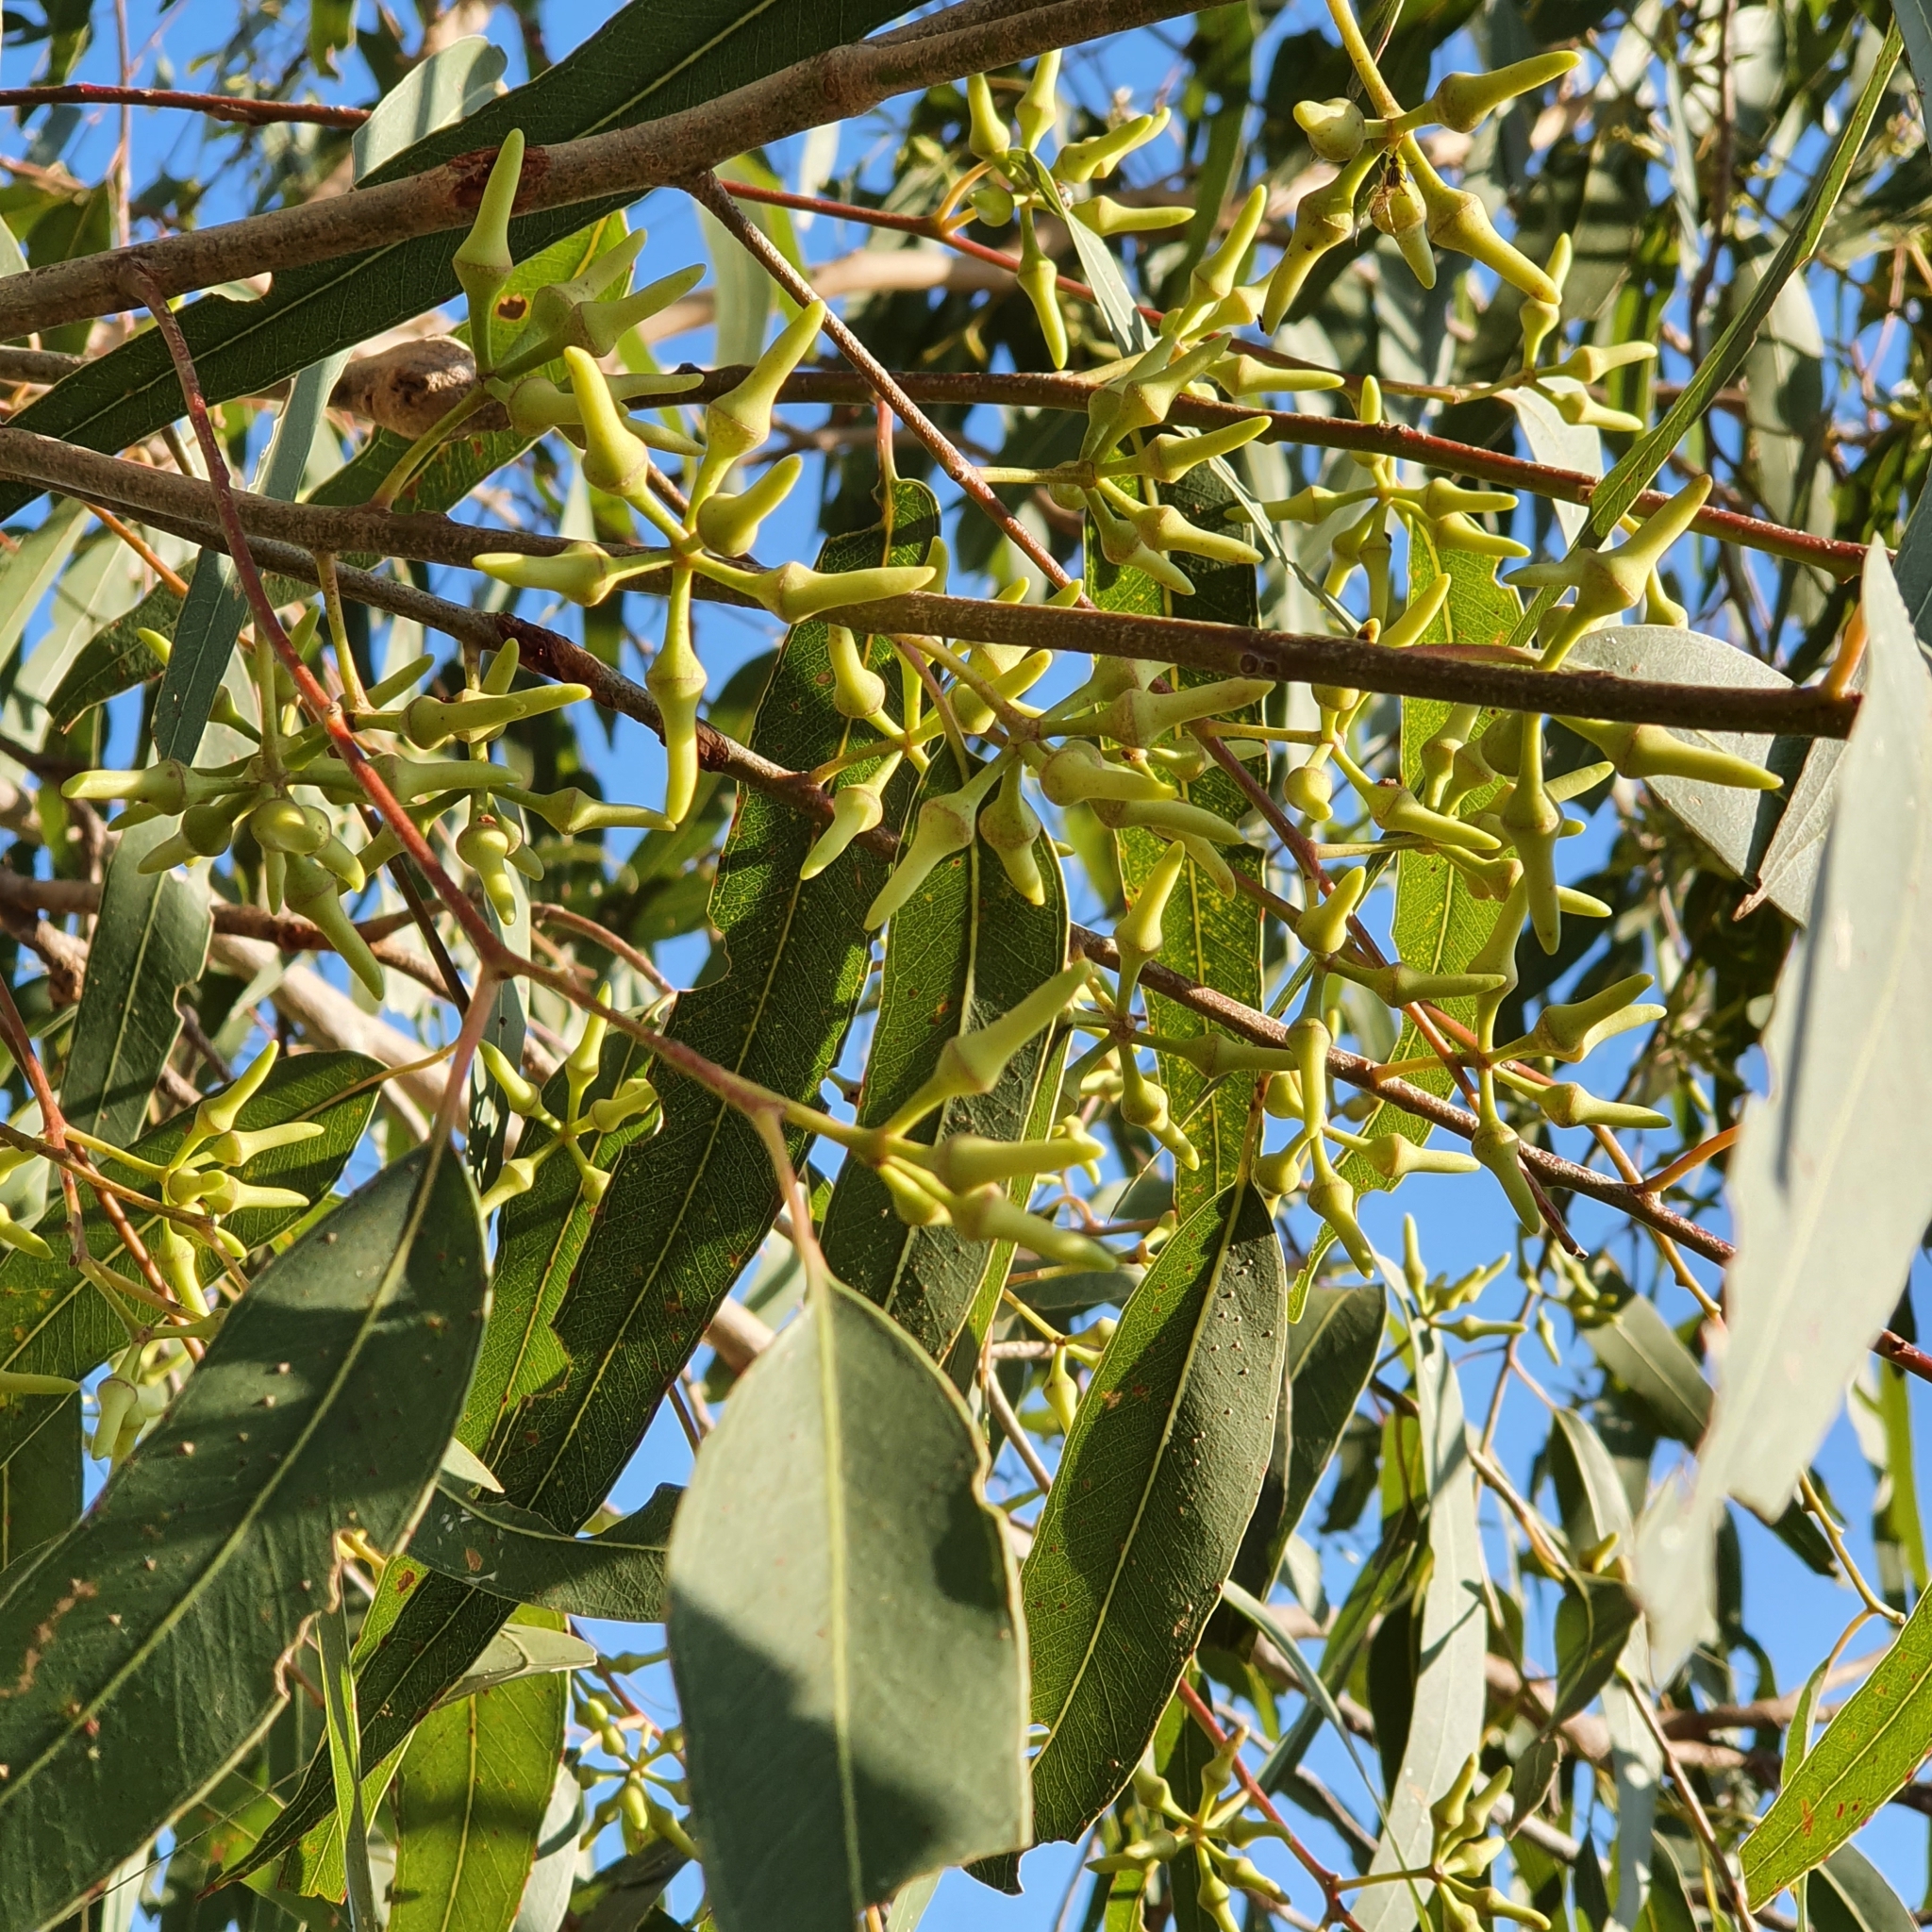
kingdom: Plantae
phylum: Tracheophyta
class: Magnoliopsida
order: Myrtales
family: Myrtaceae
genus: Eucalyptus
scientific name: Eucalyptus tereticornis
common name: Forest redgum
